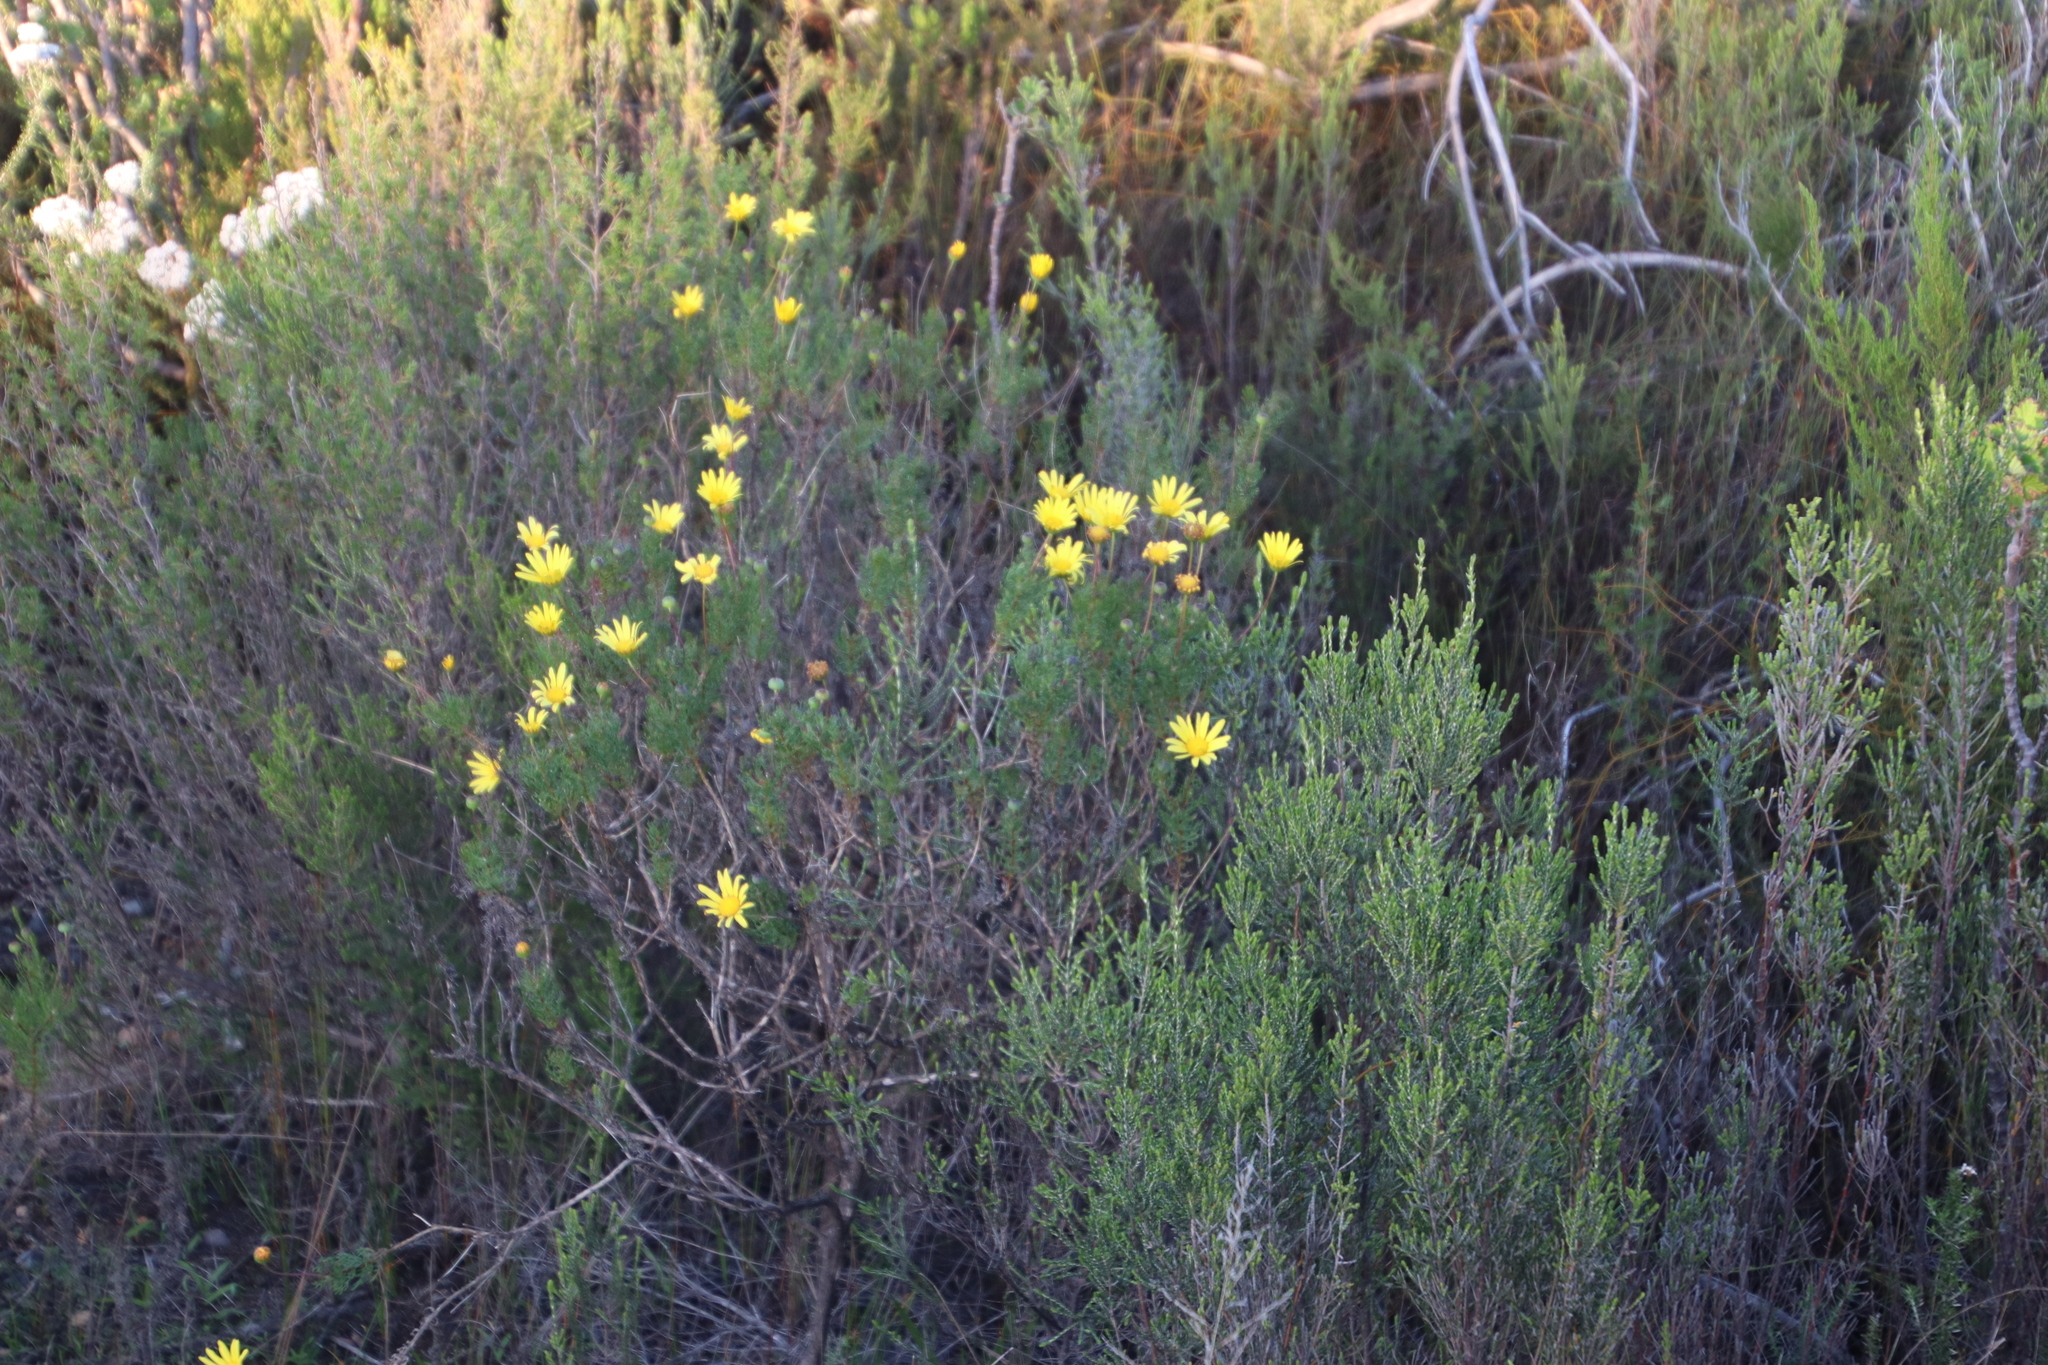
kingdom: Plantae
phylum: Tracheophyta
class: Magnoliopsida
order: Asterales
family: Asteraceae
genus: Euryops
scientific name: Euryops abrotanifolius
